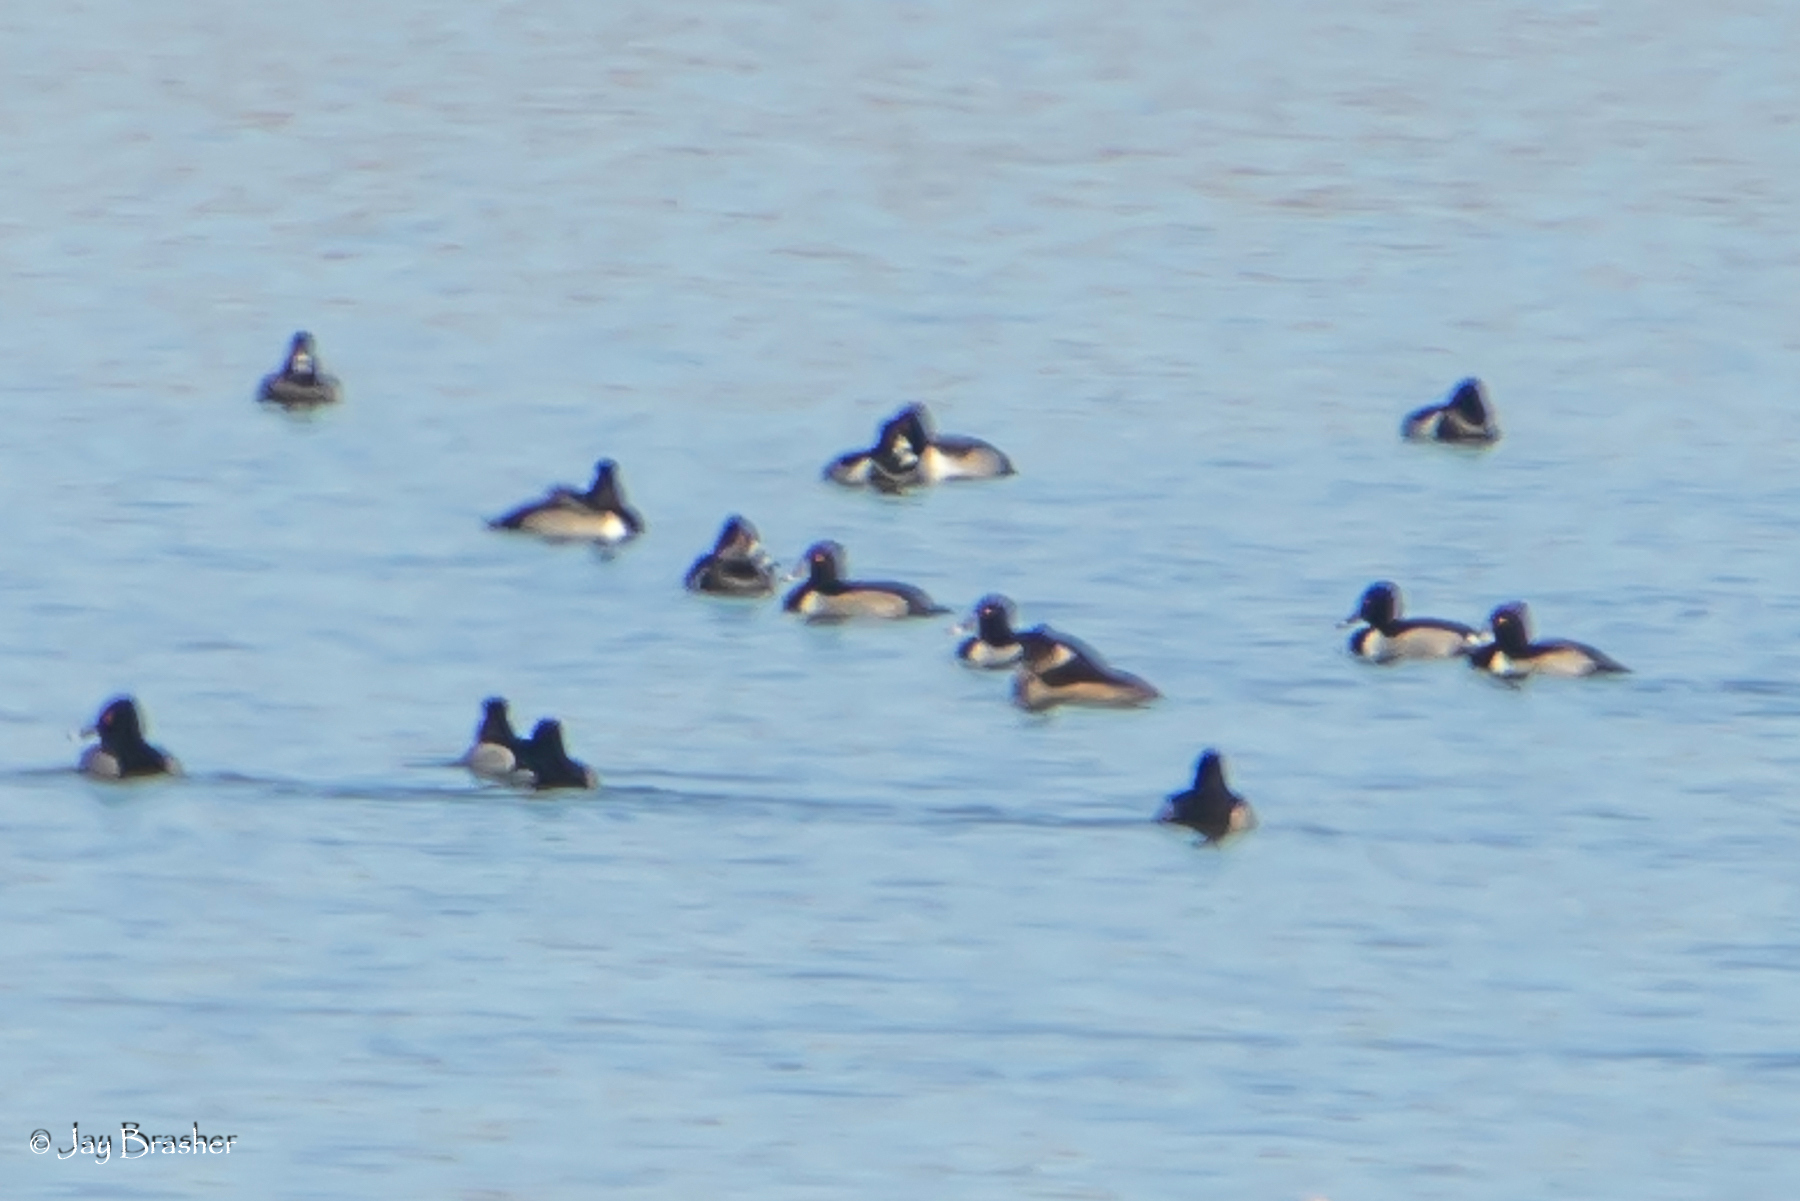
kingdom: Animalia
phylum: Chordata
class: Aves
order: Anseriformes
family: Anatidae
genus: Aythya
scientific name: Aythya collaris
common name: Ring-necked duck
